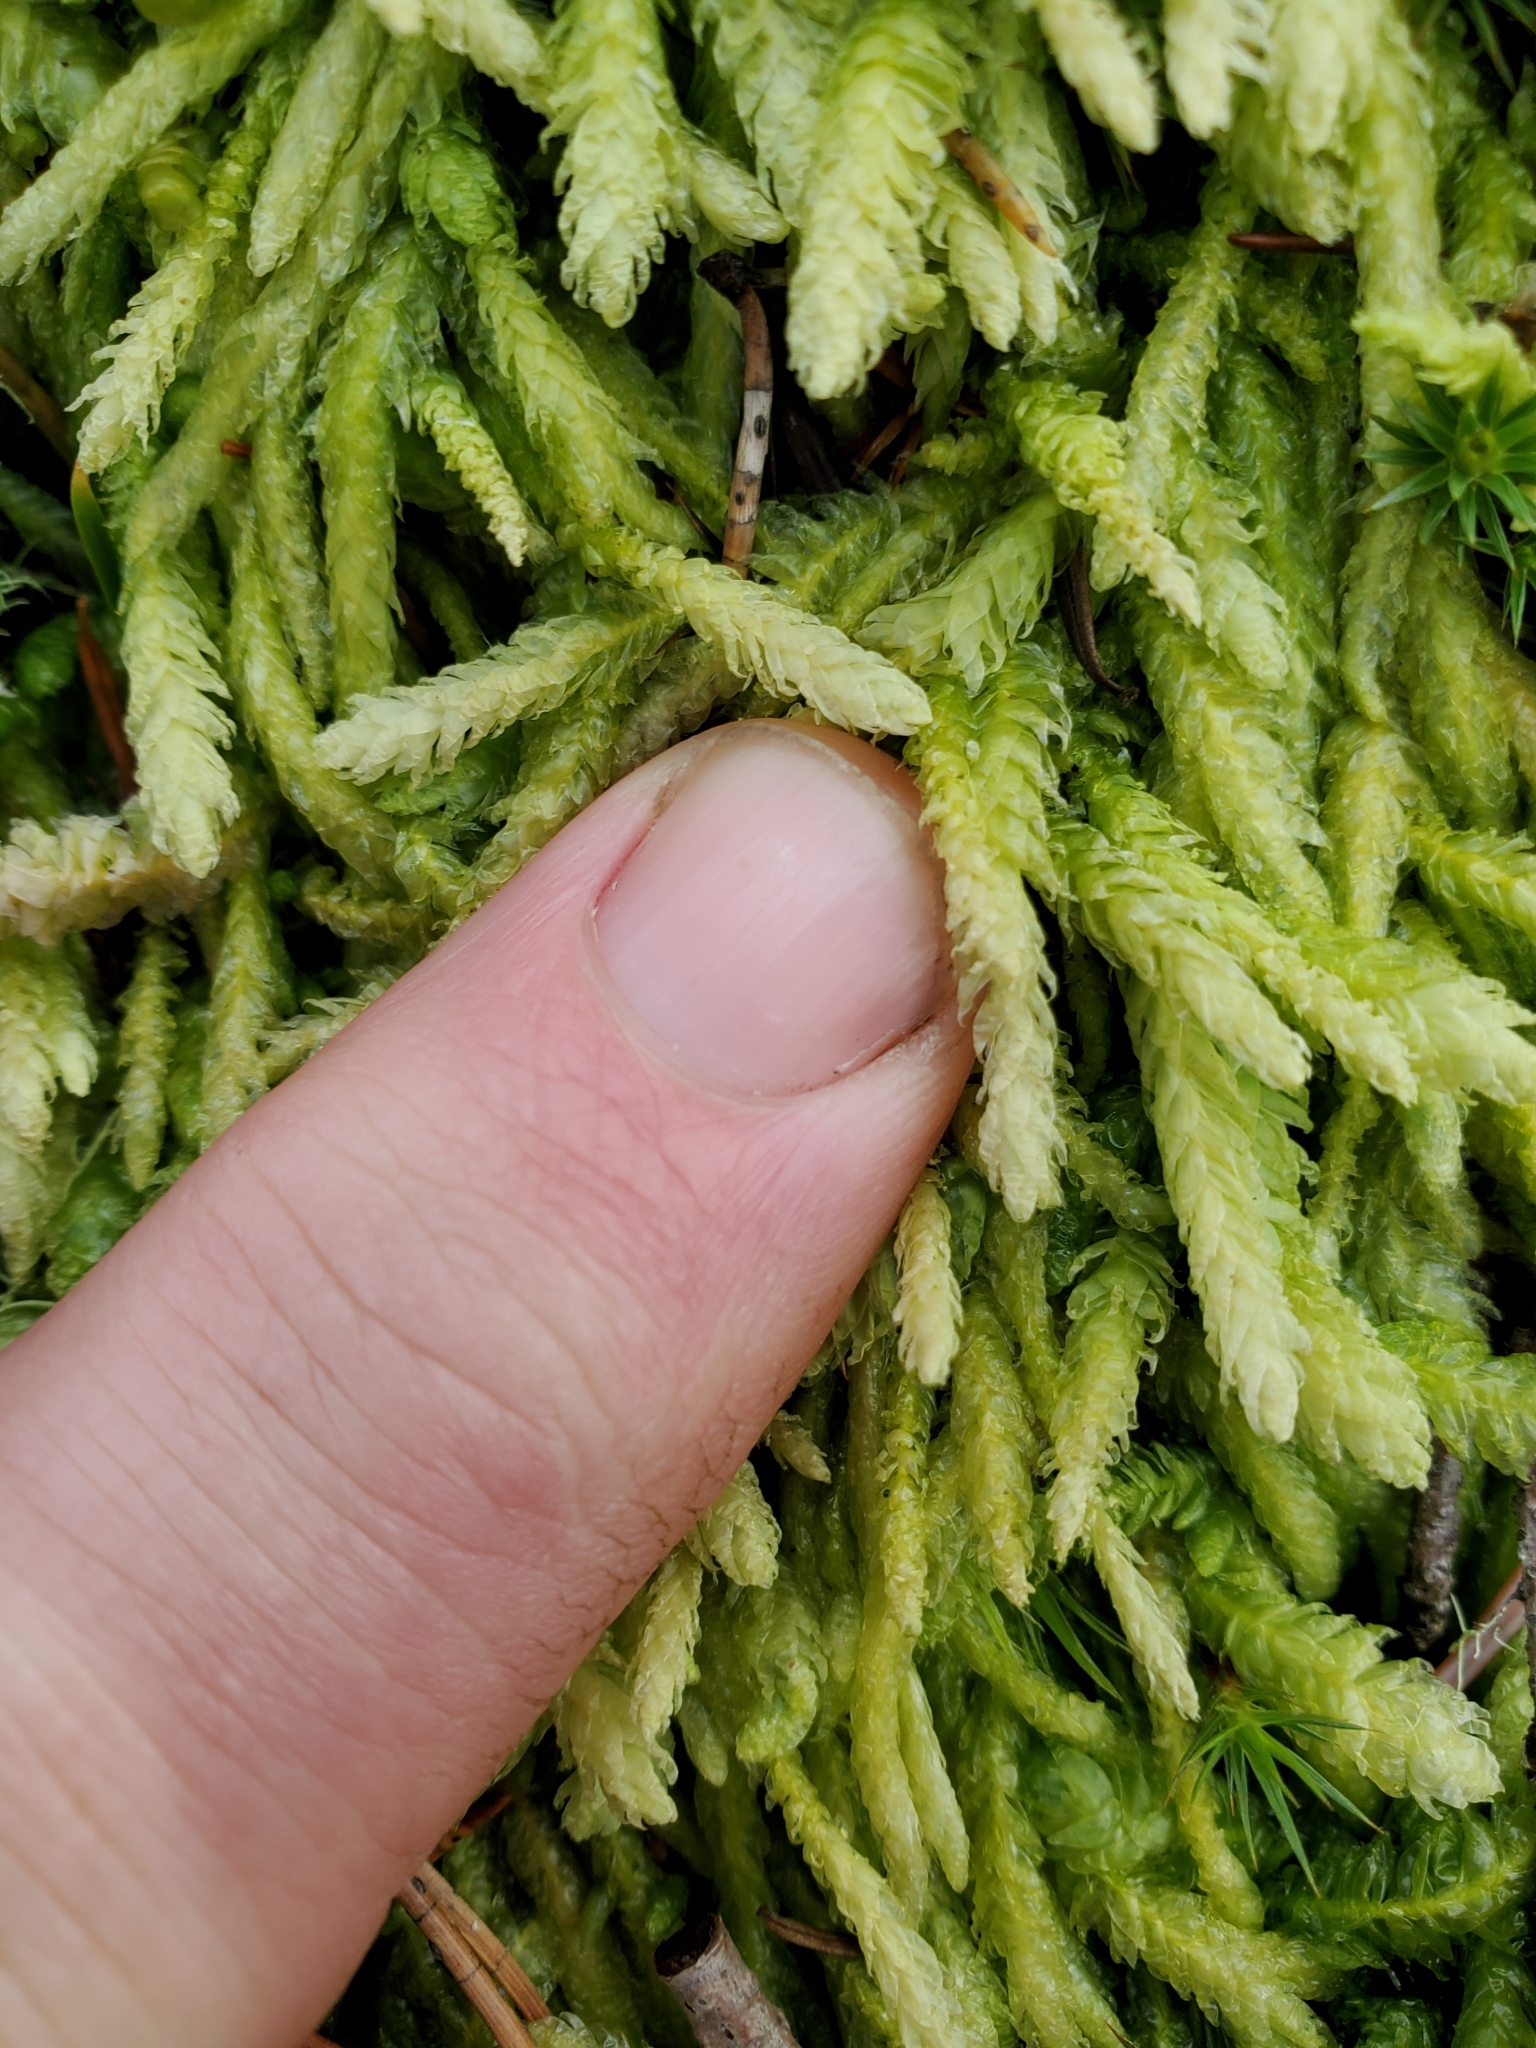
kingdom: Plantae
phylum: Bryophyta
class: Bryopsida
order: Hypnales
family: Plagiotheciaceae
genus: Plagiothecium
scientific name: Plagiothecium undulatum
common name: Waved silk-moss
